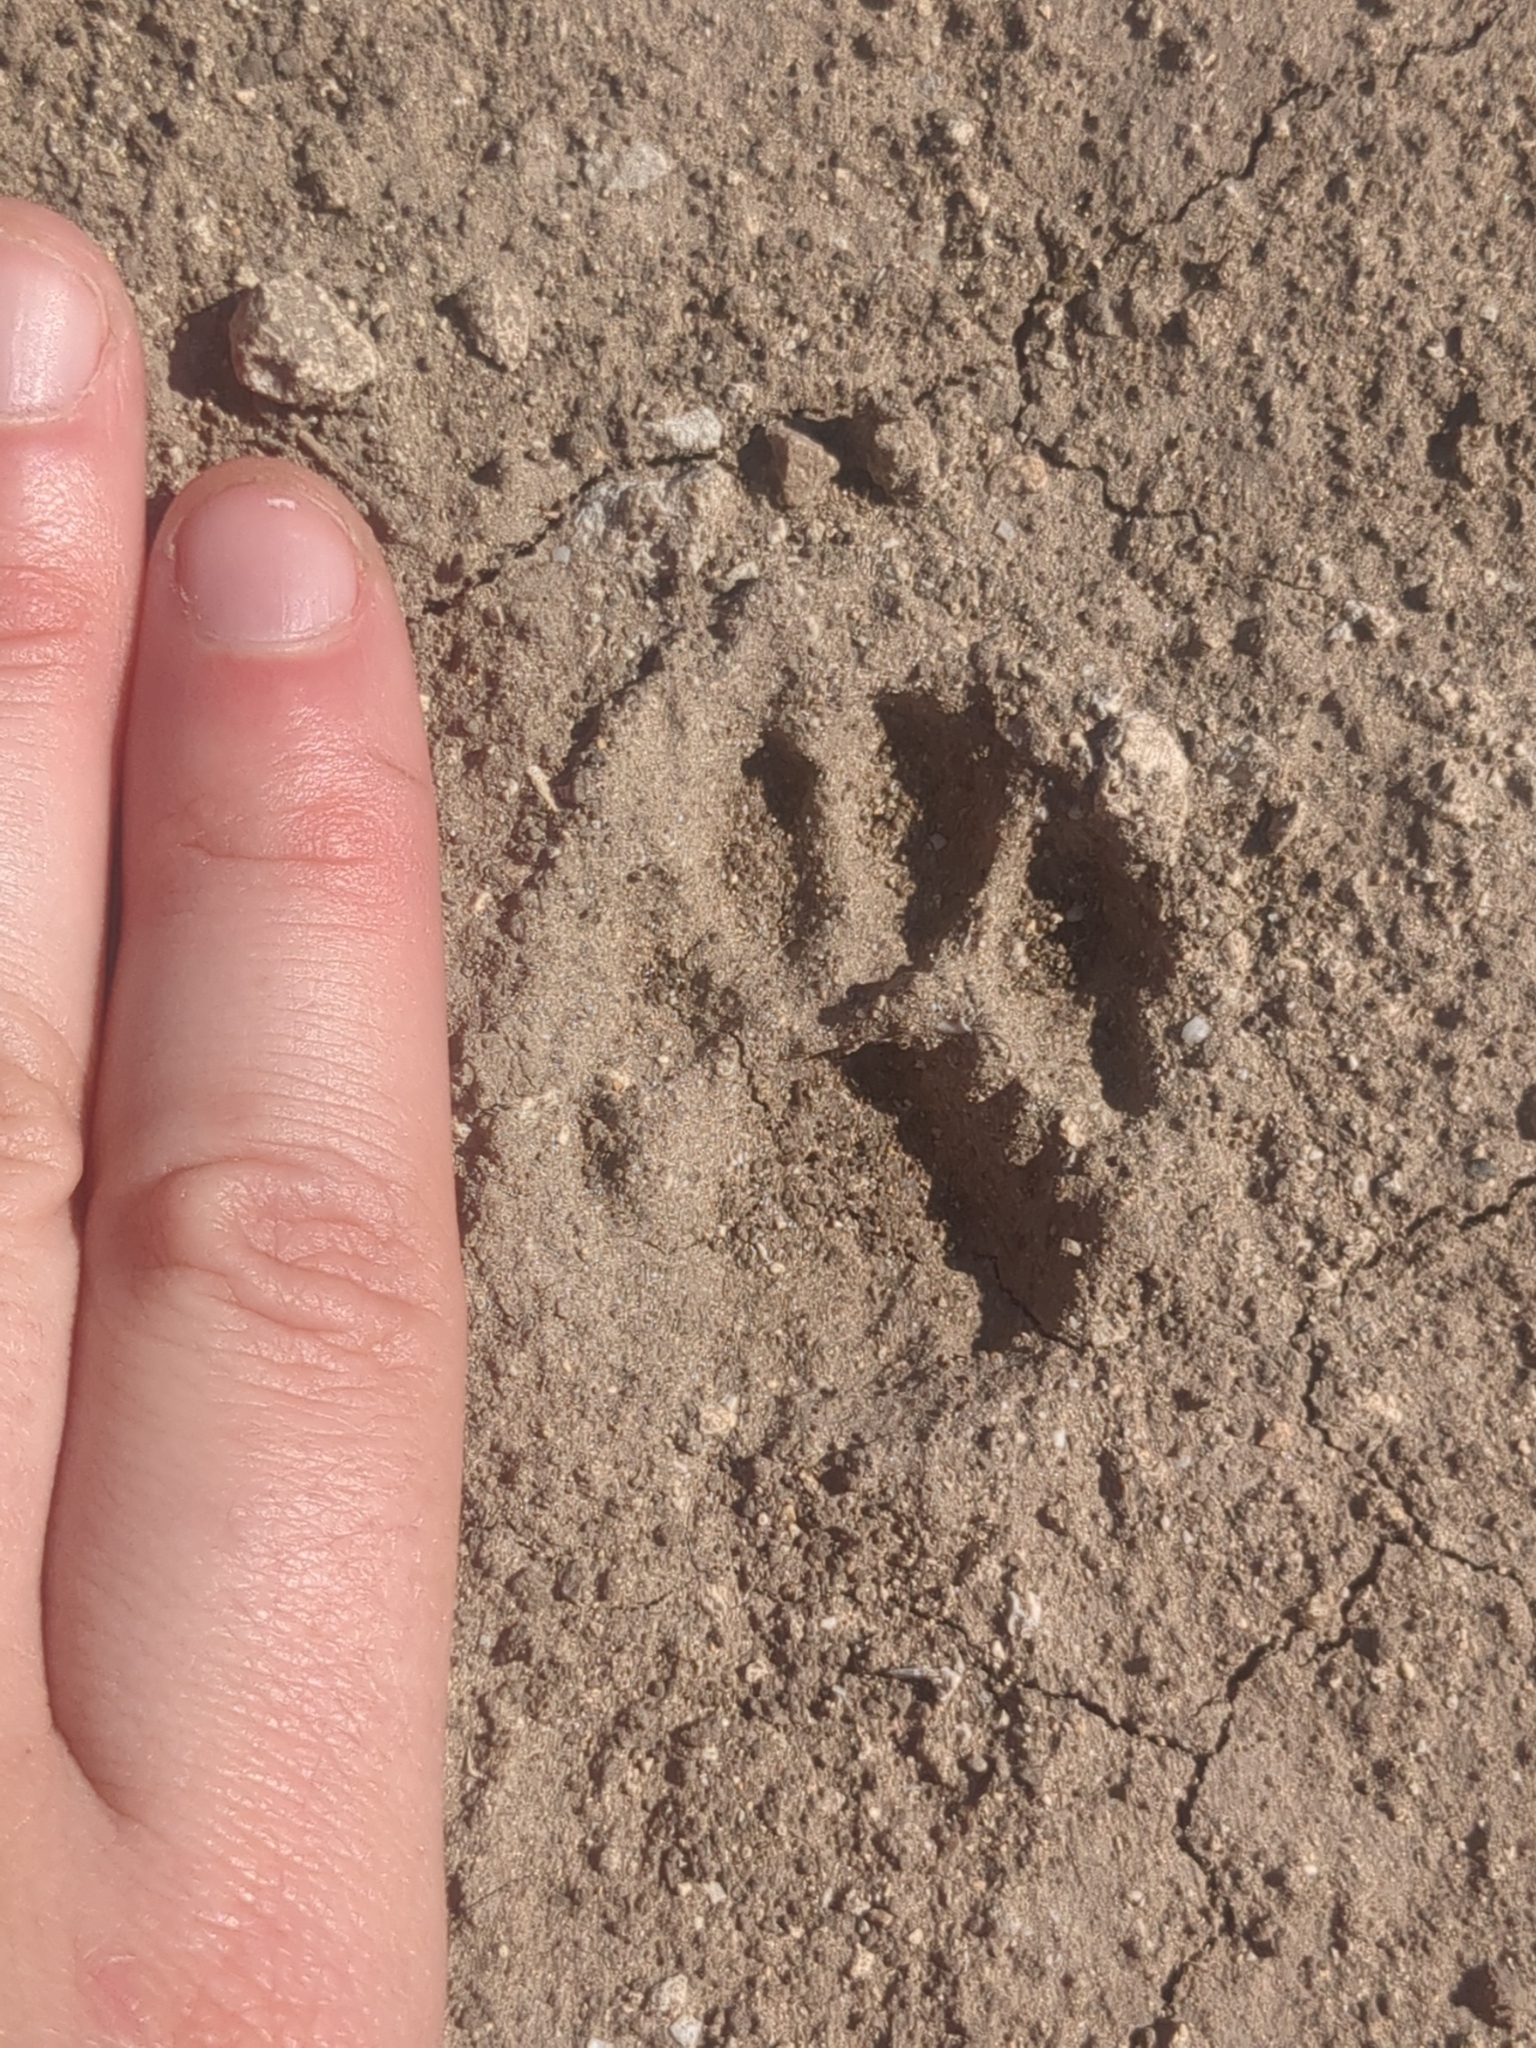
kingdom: Animalia
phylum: Chordata
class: Mammalia
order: Carnivora
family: Felidae
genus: Lynx
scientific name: Lynx rufus
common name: Bobcat
